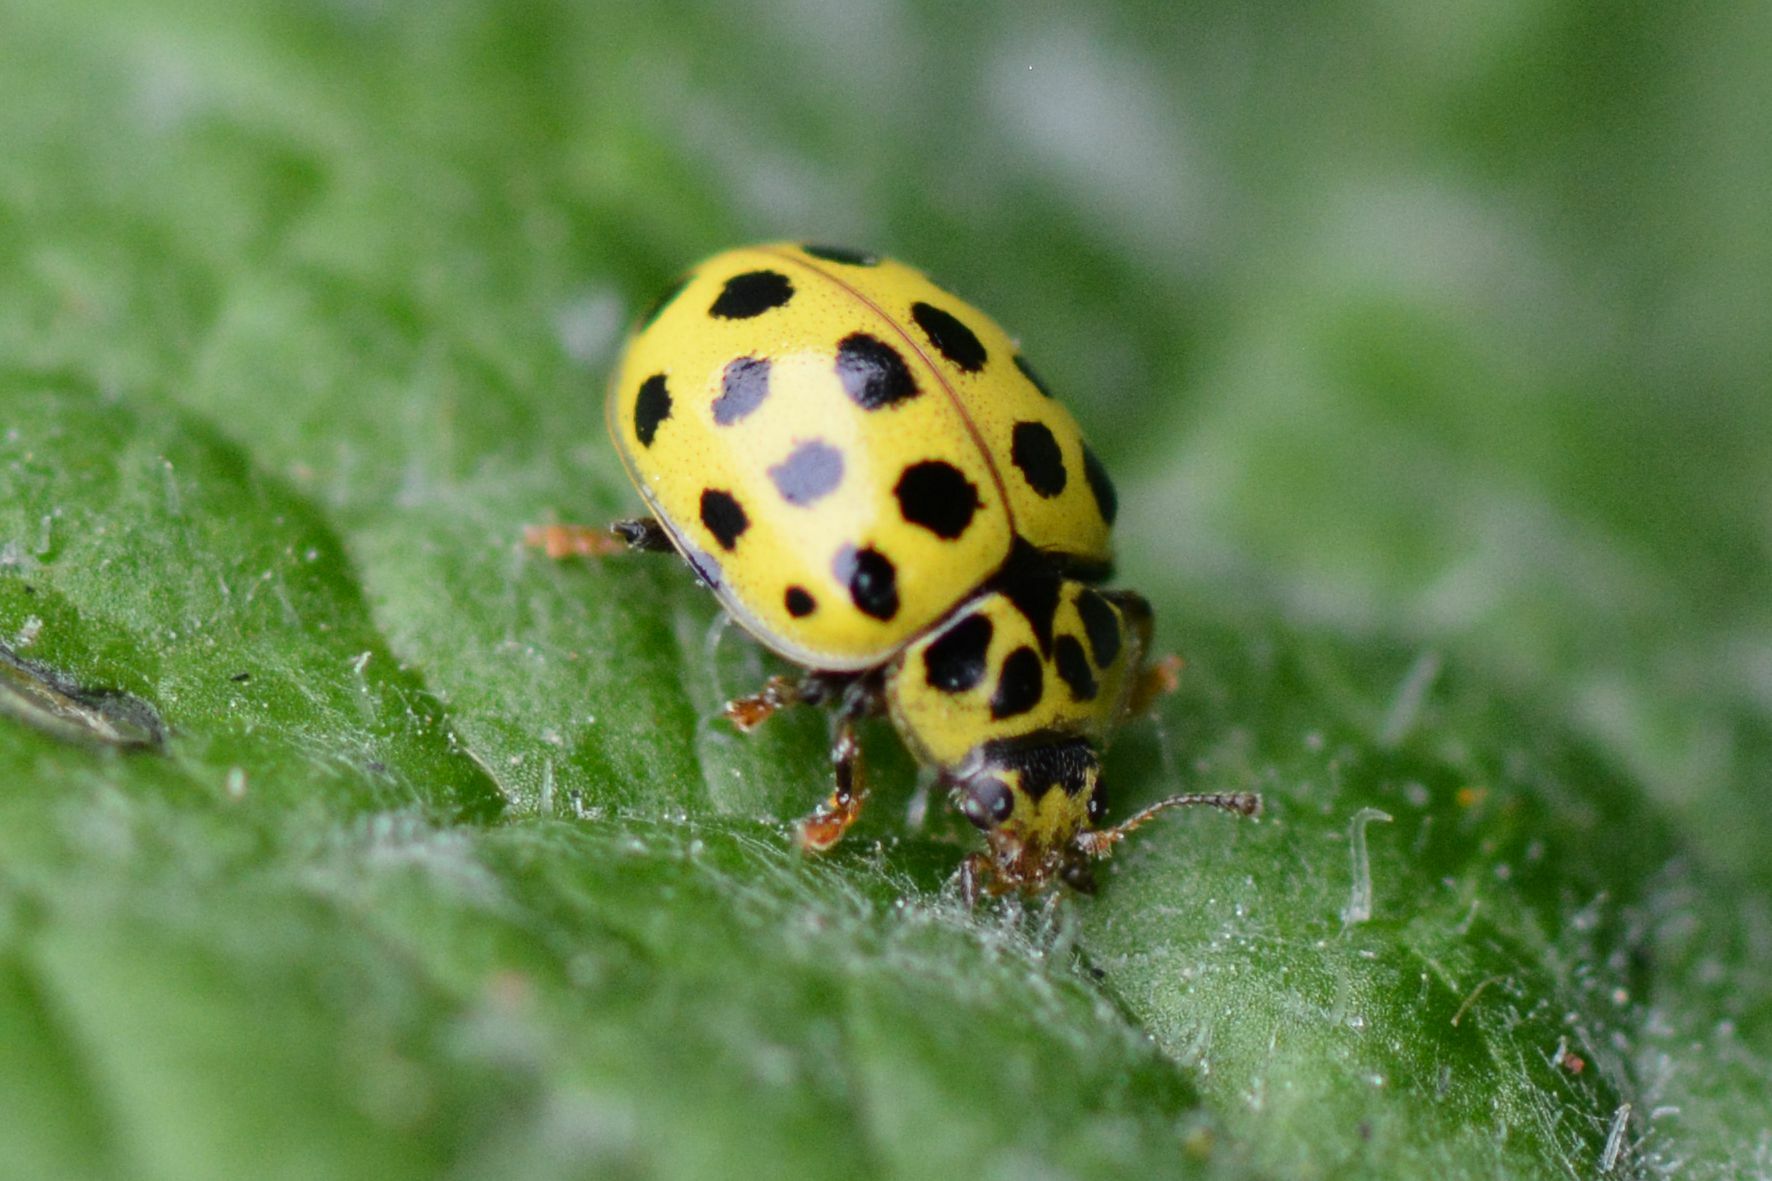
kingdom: Animalia
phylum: Arthropoda
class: Insecta
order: Coleoptera
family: Coccinellidae
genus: Psyllobora
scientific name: Psyllobora vigintiduopunctata
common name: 22-spot ladybird
